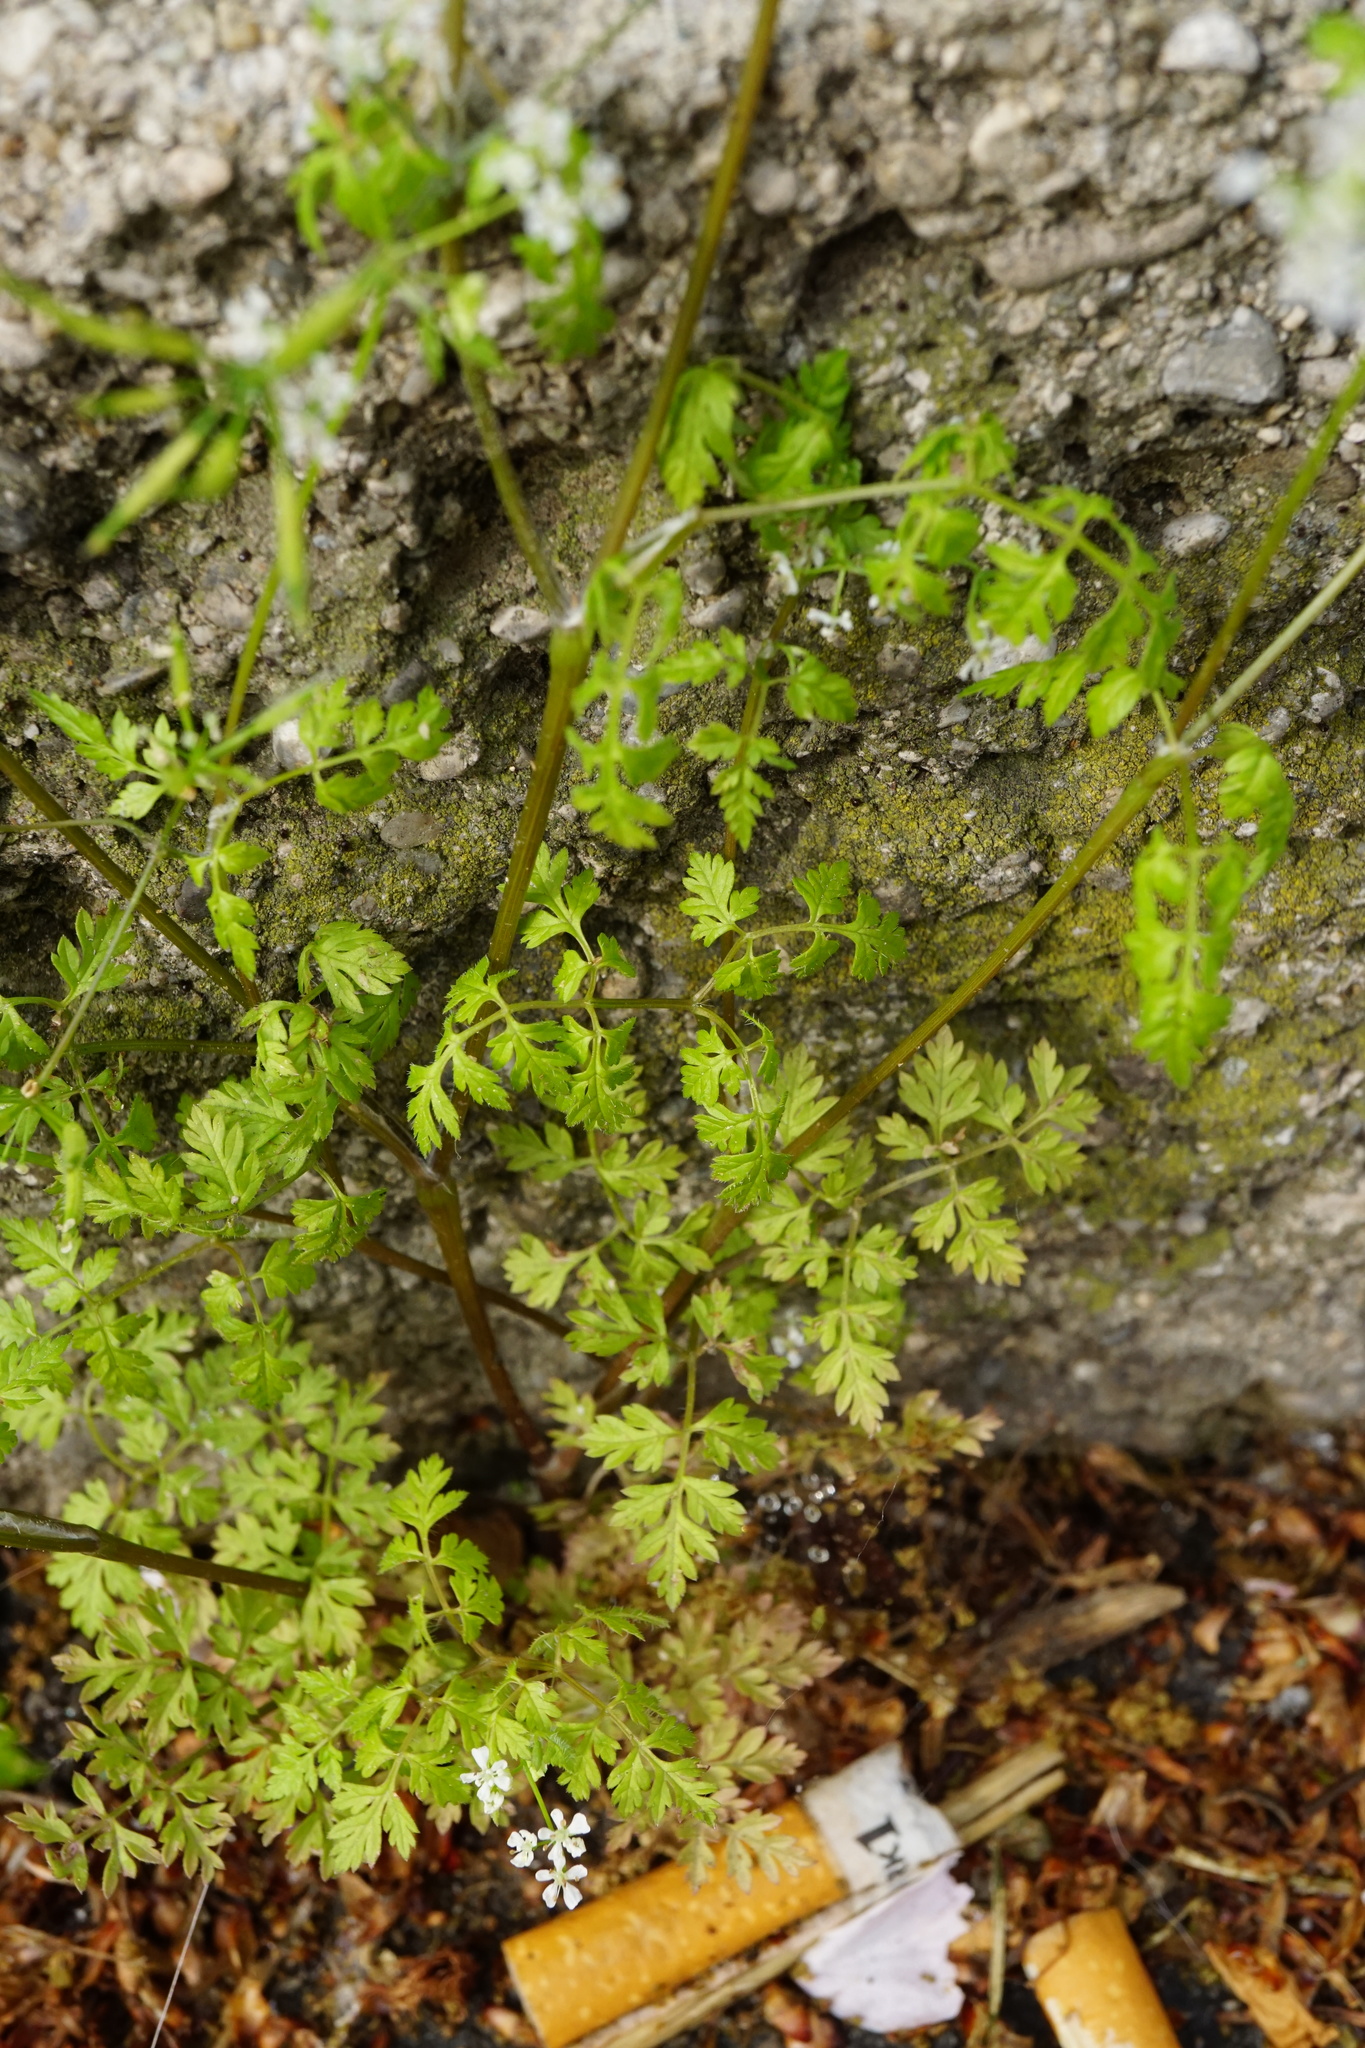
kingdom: Plantae
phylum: Tracheophyta
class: Magnoliopsida
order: Apiales
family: Apiaceae
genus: Anthriscus
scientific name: Anthriscus cerefolium
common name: Garden chervil
